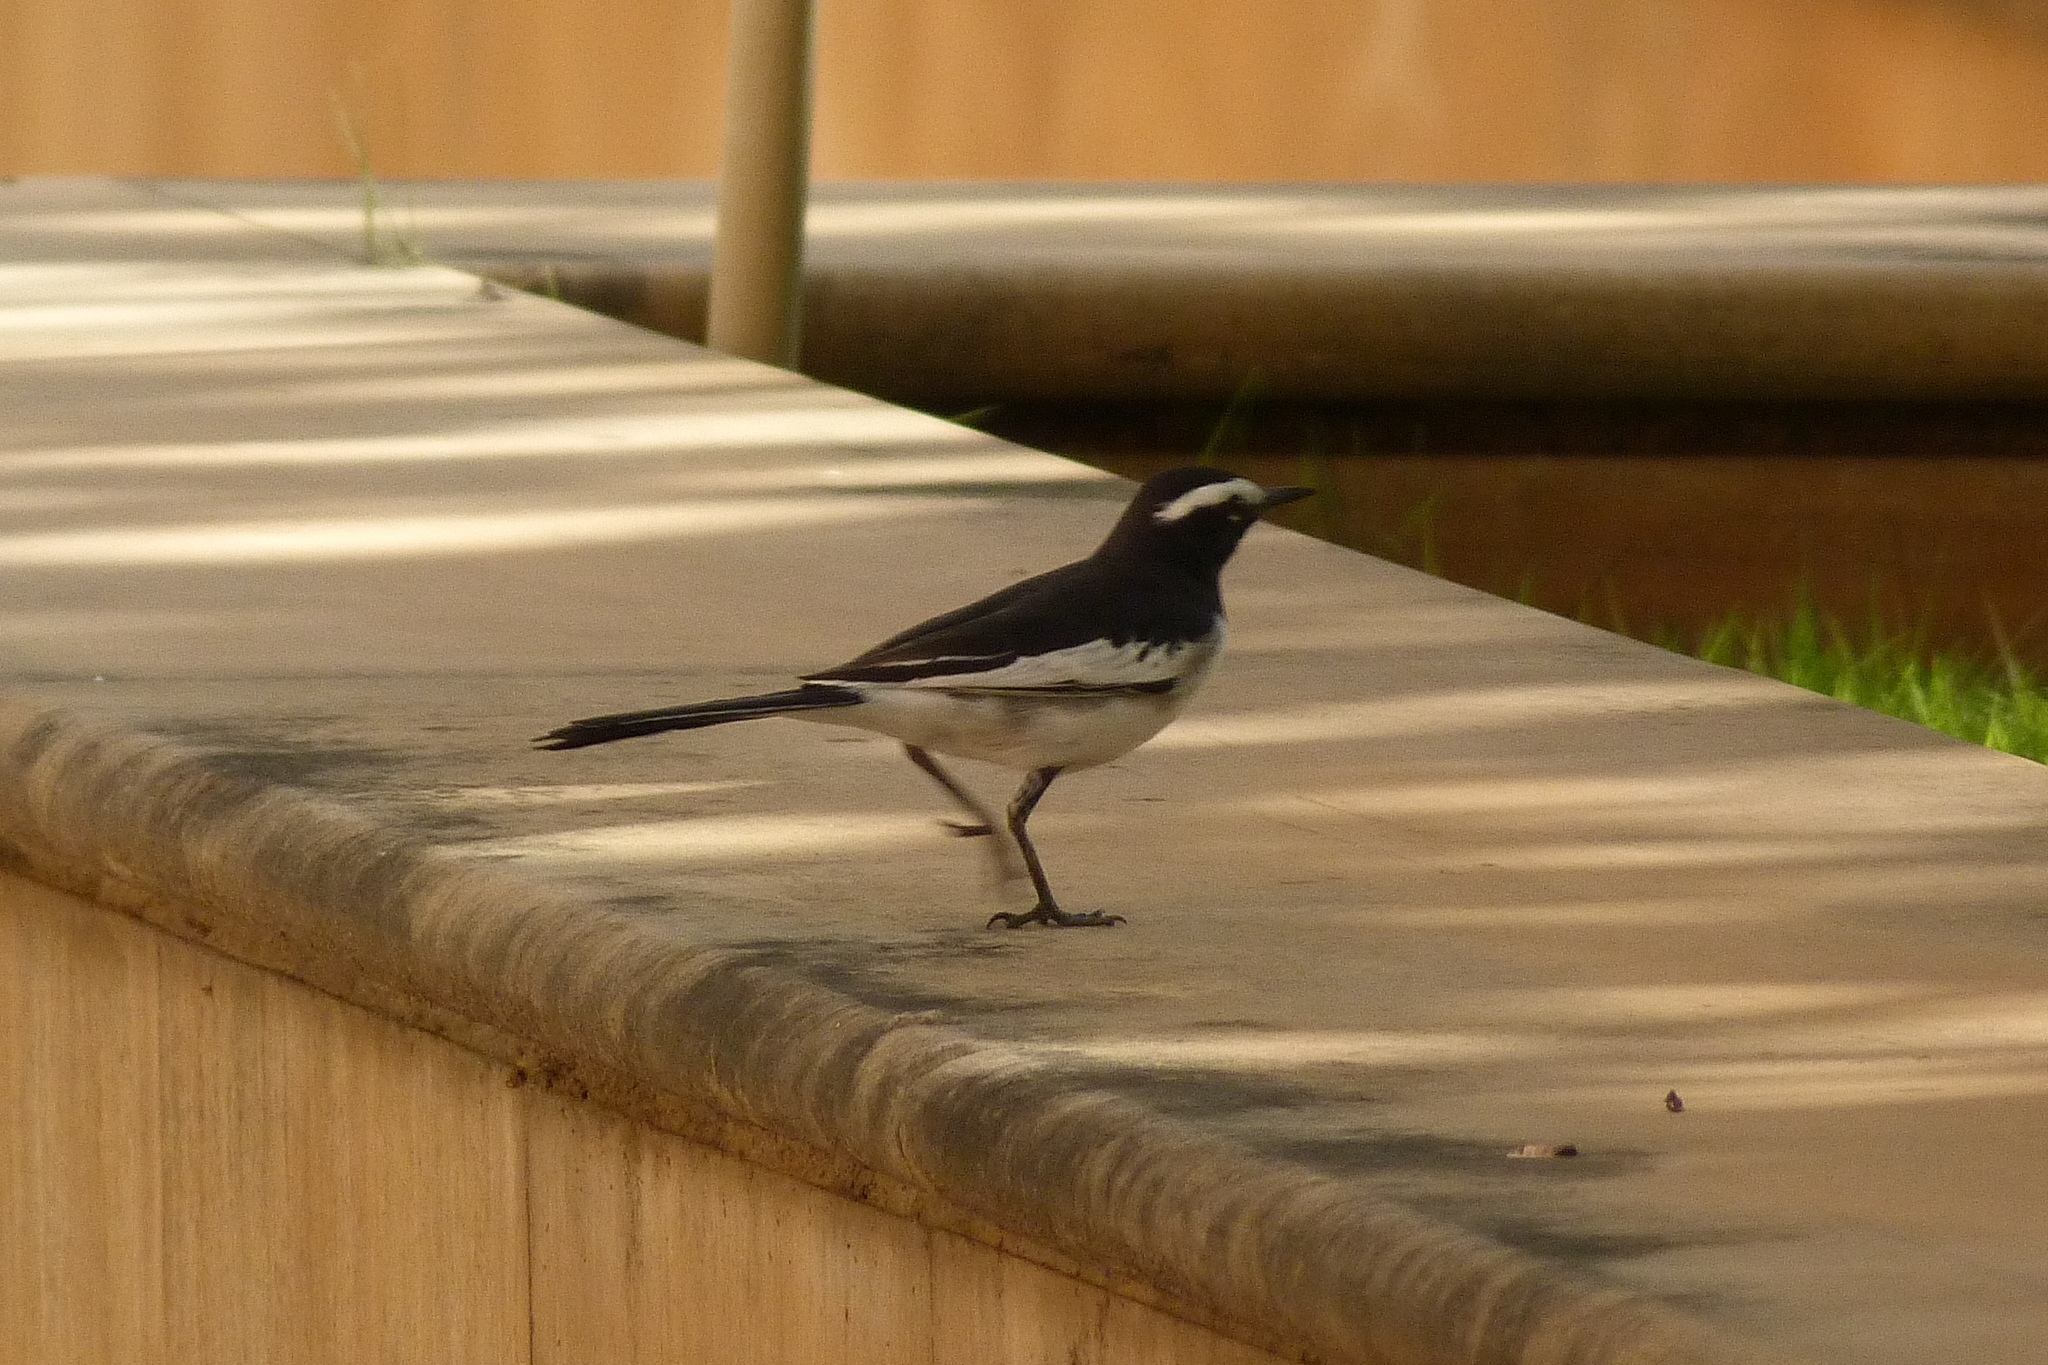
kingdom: Animalia
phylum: Chordata
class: Aves
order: Passeriformes
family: Motacillidae
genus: Motacilla
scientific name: Motacilla maderaspatensis
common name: White-browed wagtail
